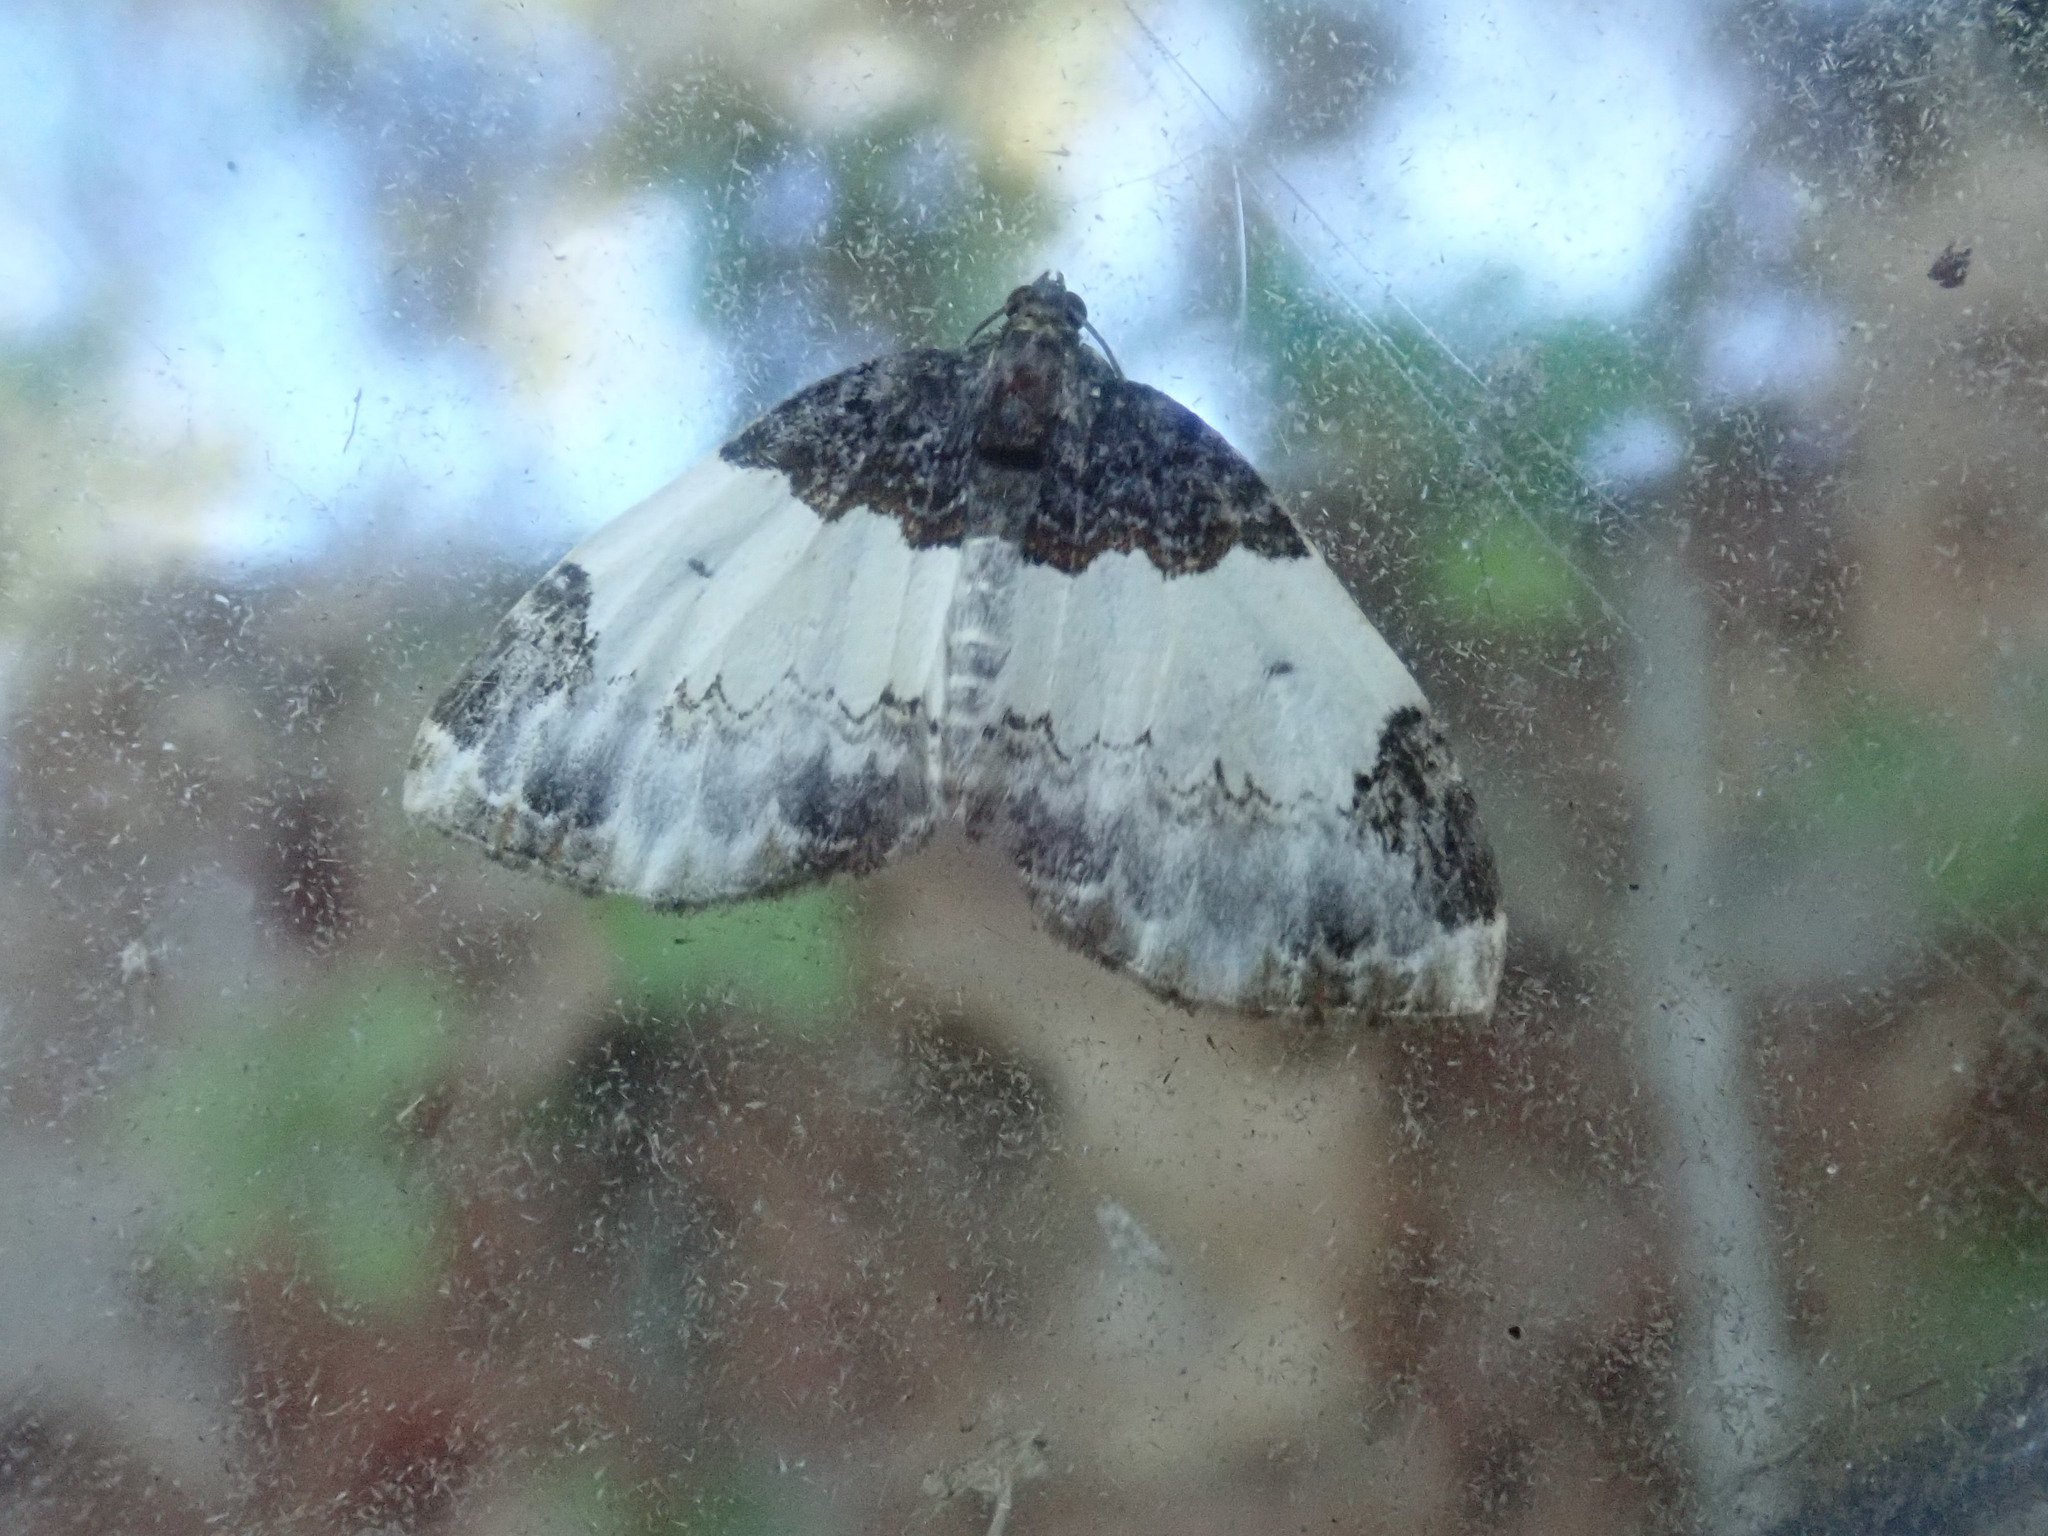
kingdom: Animalia
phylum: Arthropoda
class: Insecta
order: Lepidoptera
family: Geometridae
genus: Mesoleuca
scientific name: Mesoleuca ruficillata
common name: White-ribboned carpet moth
